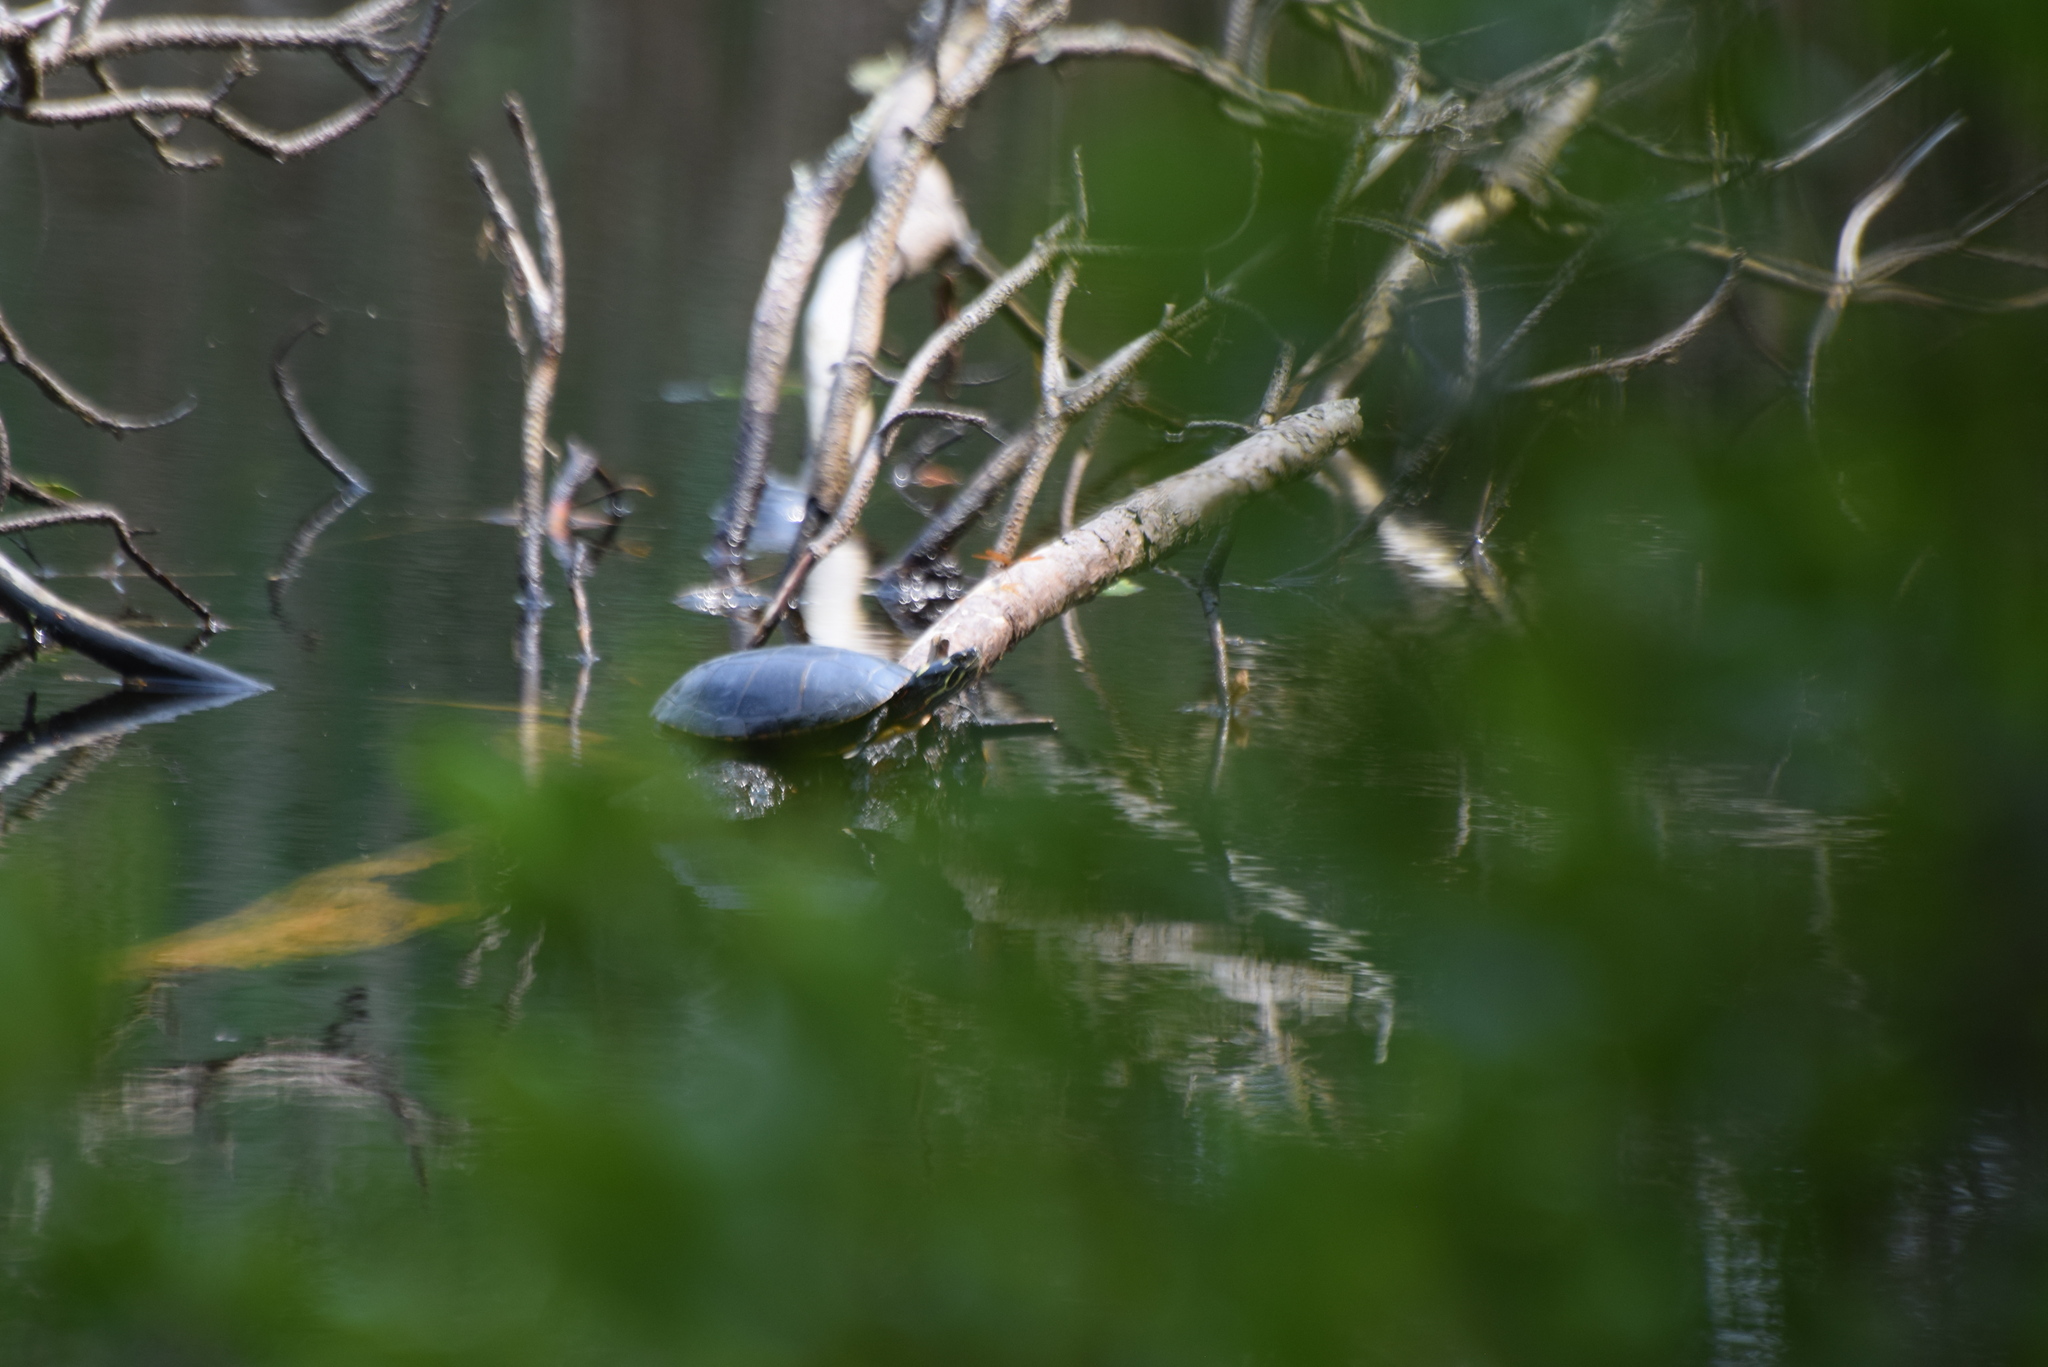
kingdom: Animalia
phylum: Chordata
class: Testudines
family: Emydidae
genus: Chrysemys
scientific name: Chrysemys picta
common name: Painted turtle
